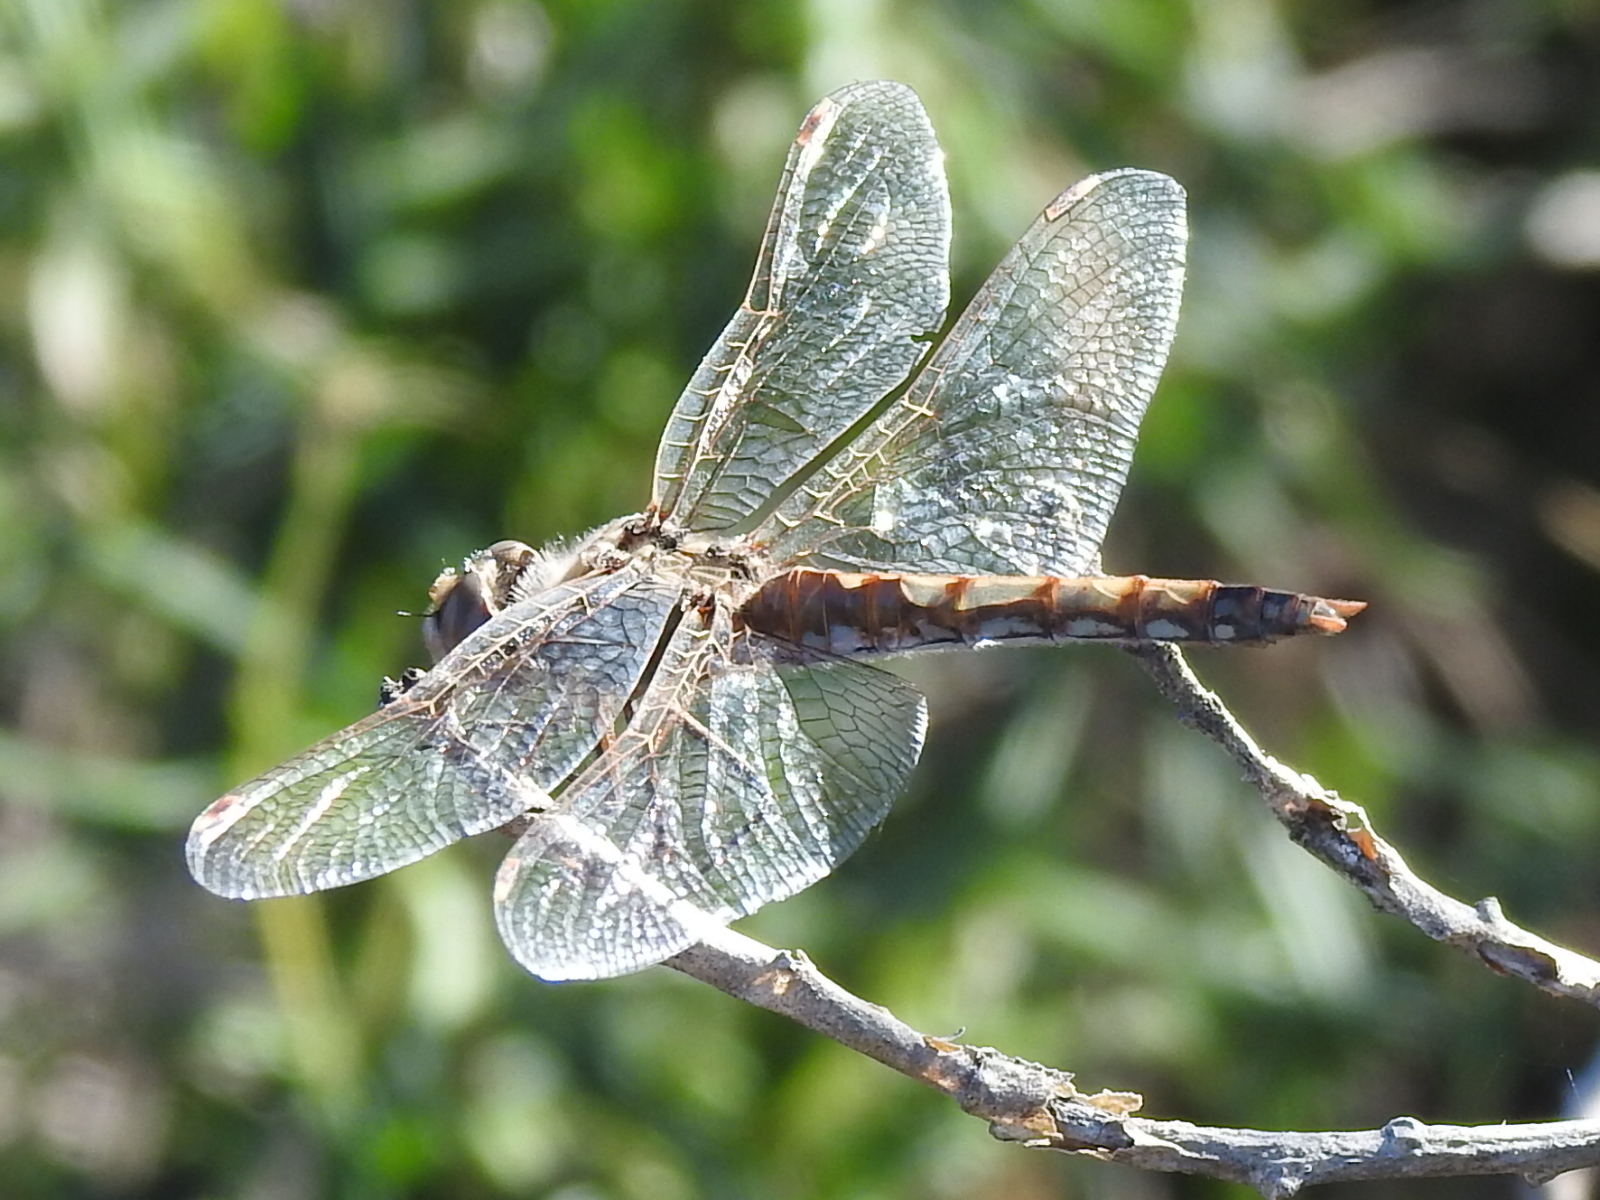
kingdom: Animalia
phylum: Arthropoda
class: Insecta
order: Odonata
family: Libellulidae
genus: Sympetrum
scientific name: Sympetrum corruptum
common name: Variegated meadowhawk
